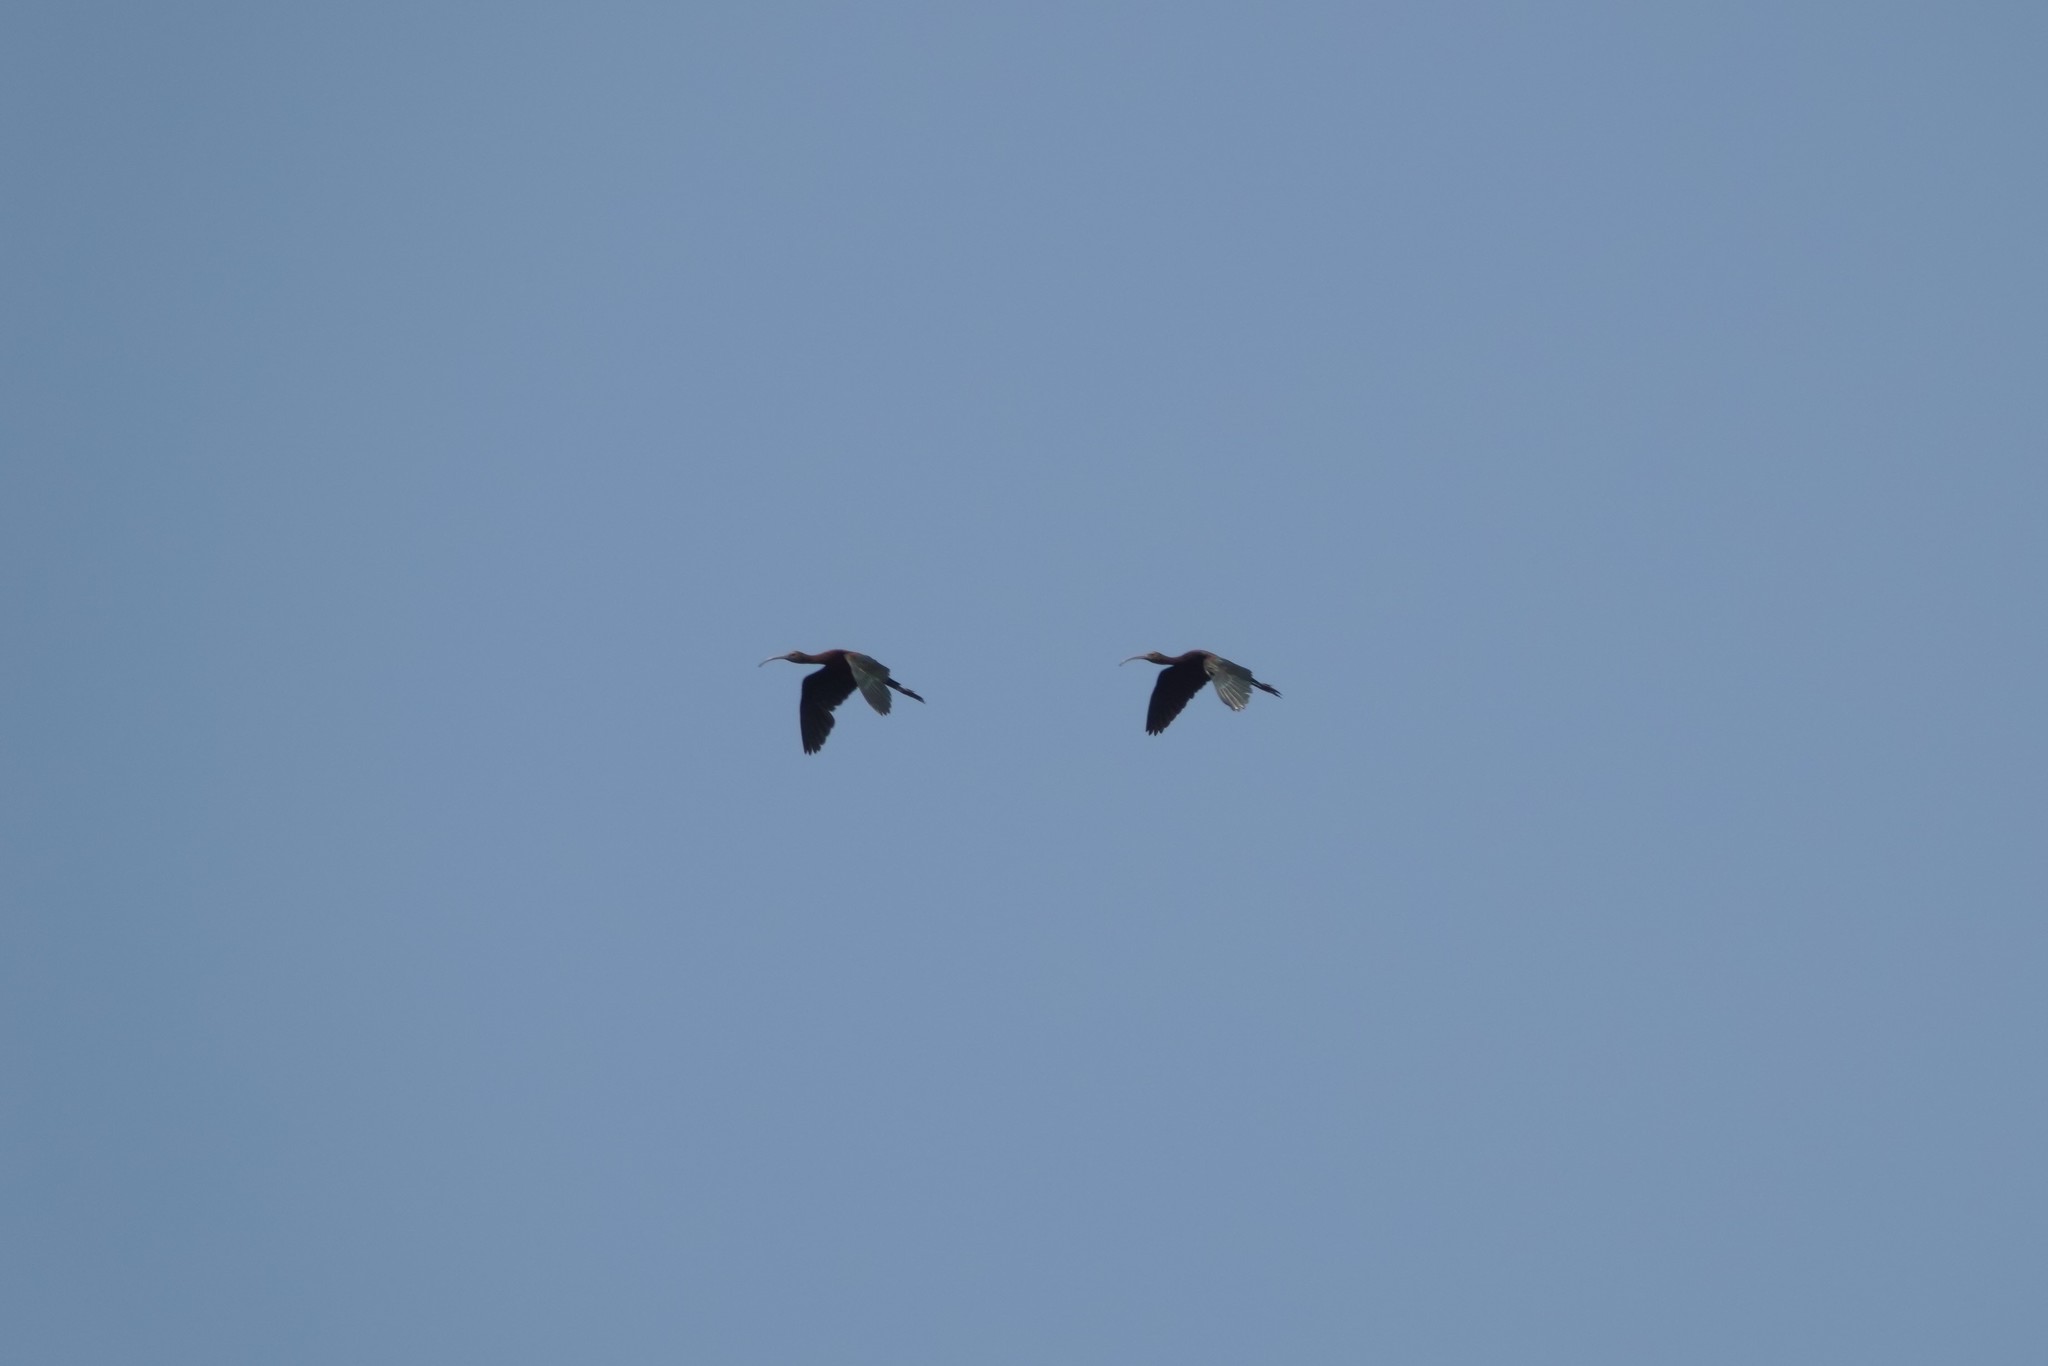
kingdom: Animalia
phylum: Chordata
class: Aves
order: Pelecaniformes
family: Threskiornithidae
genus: Plegadis
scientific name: Plegadis chihi
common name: White-faced ibis
